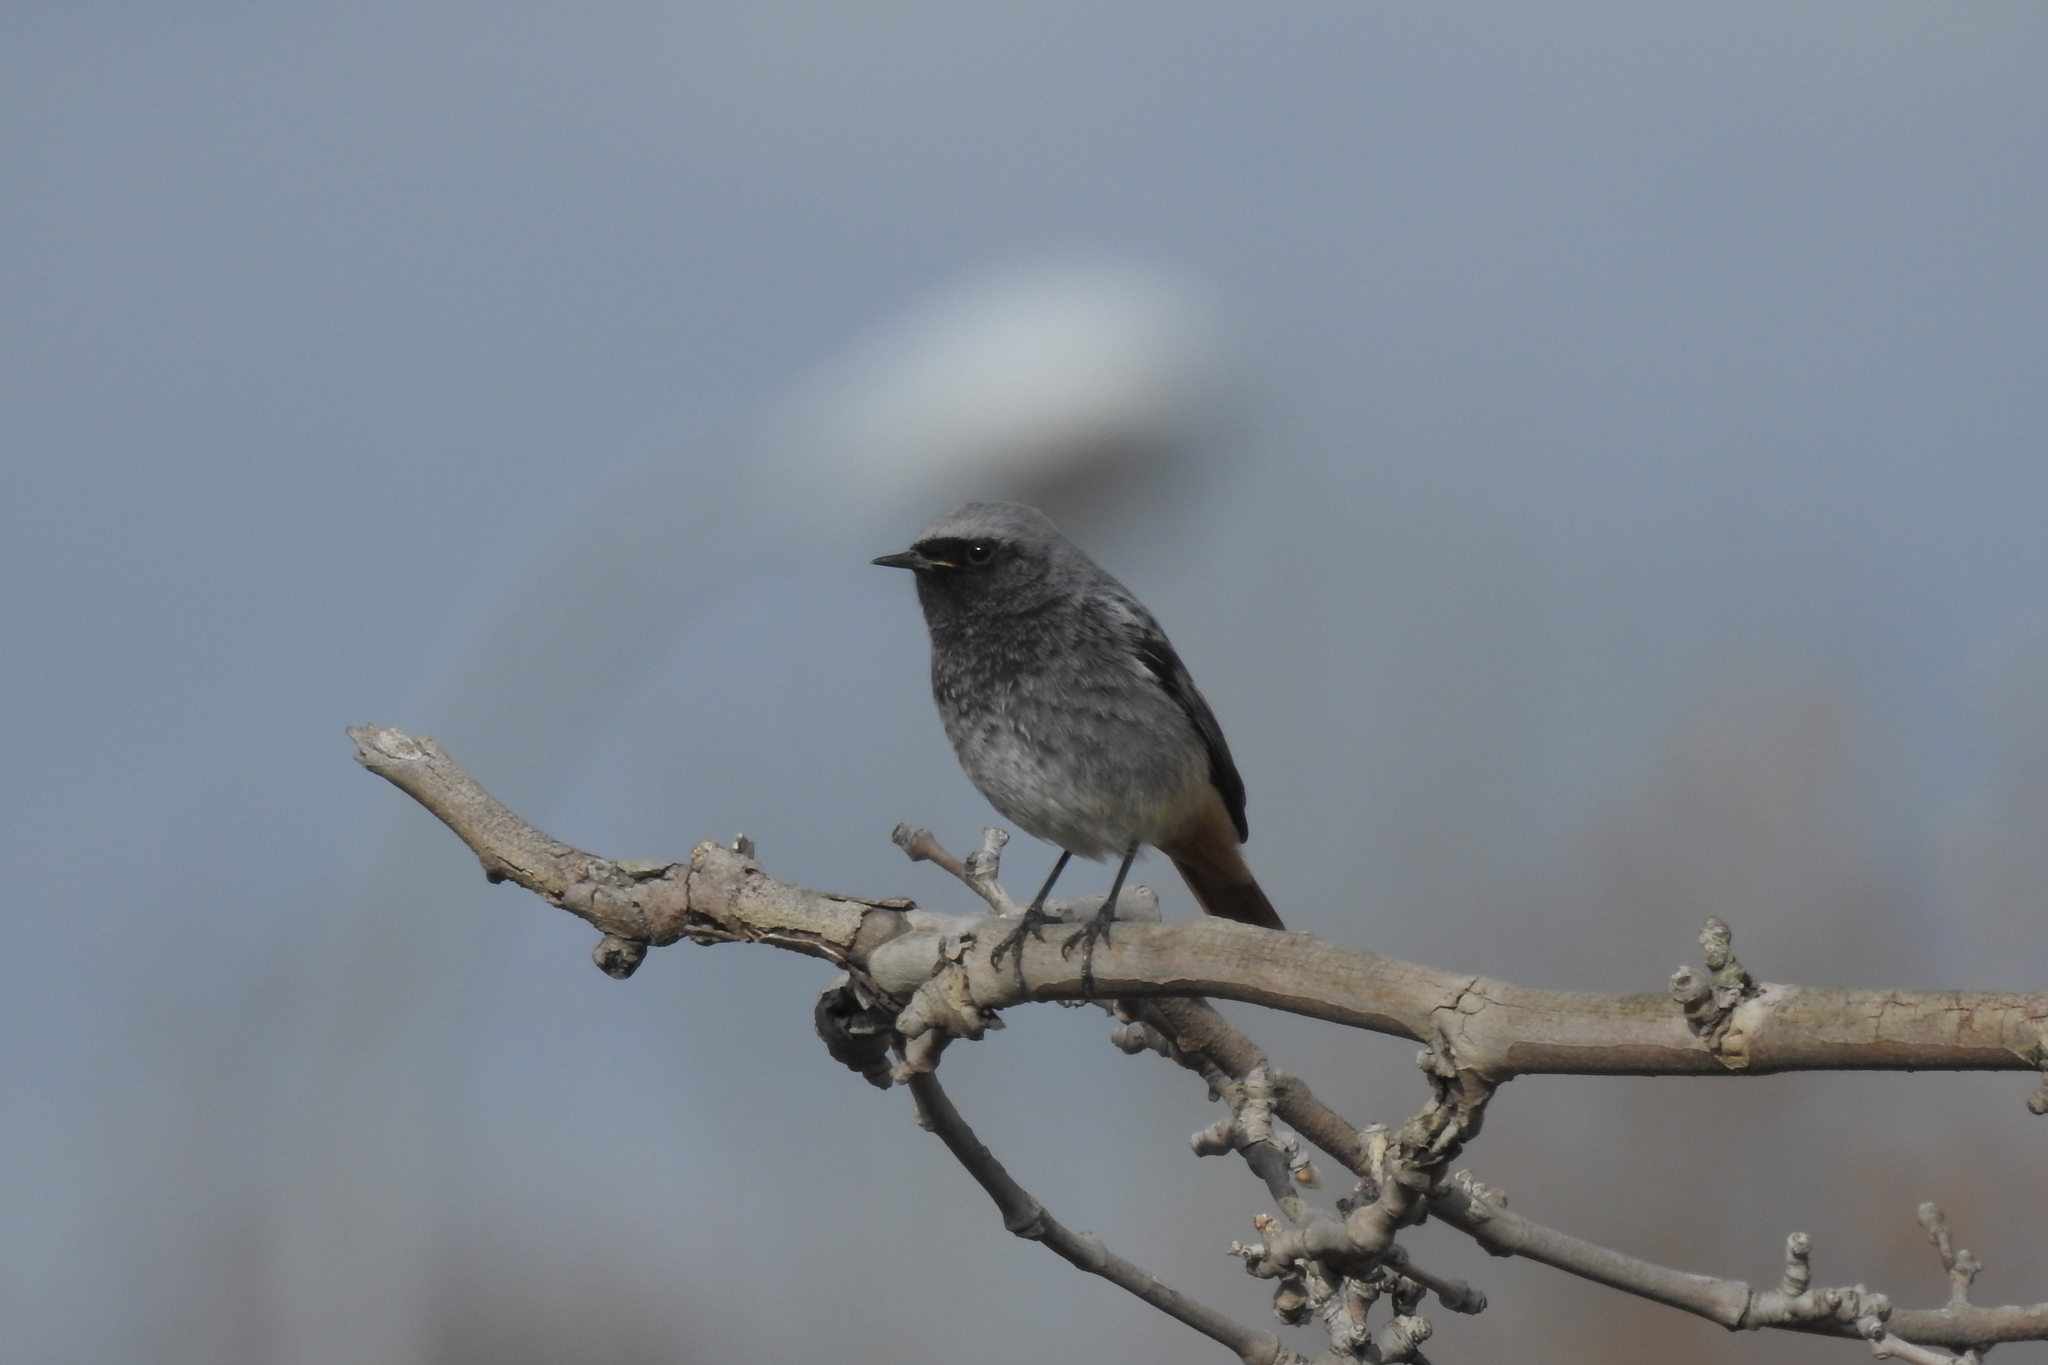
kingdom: Animalia
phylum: Chordata
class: Aves
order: Passeriformes
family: Muscicapidae
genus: Phoenicurus
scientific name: Phoenicurus ochruros
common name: Black redstart
